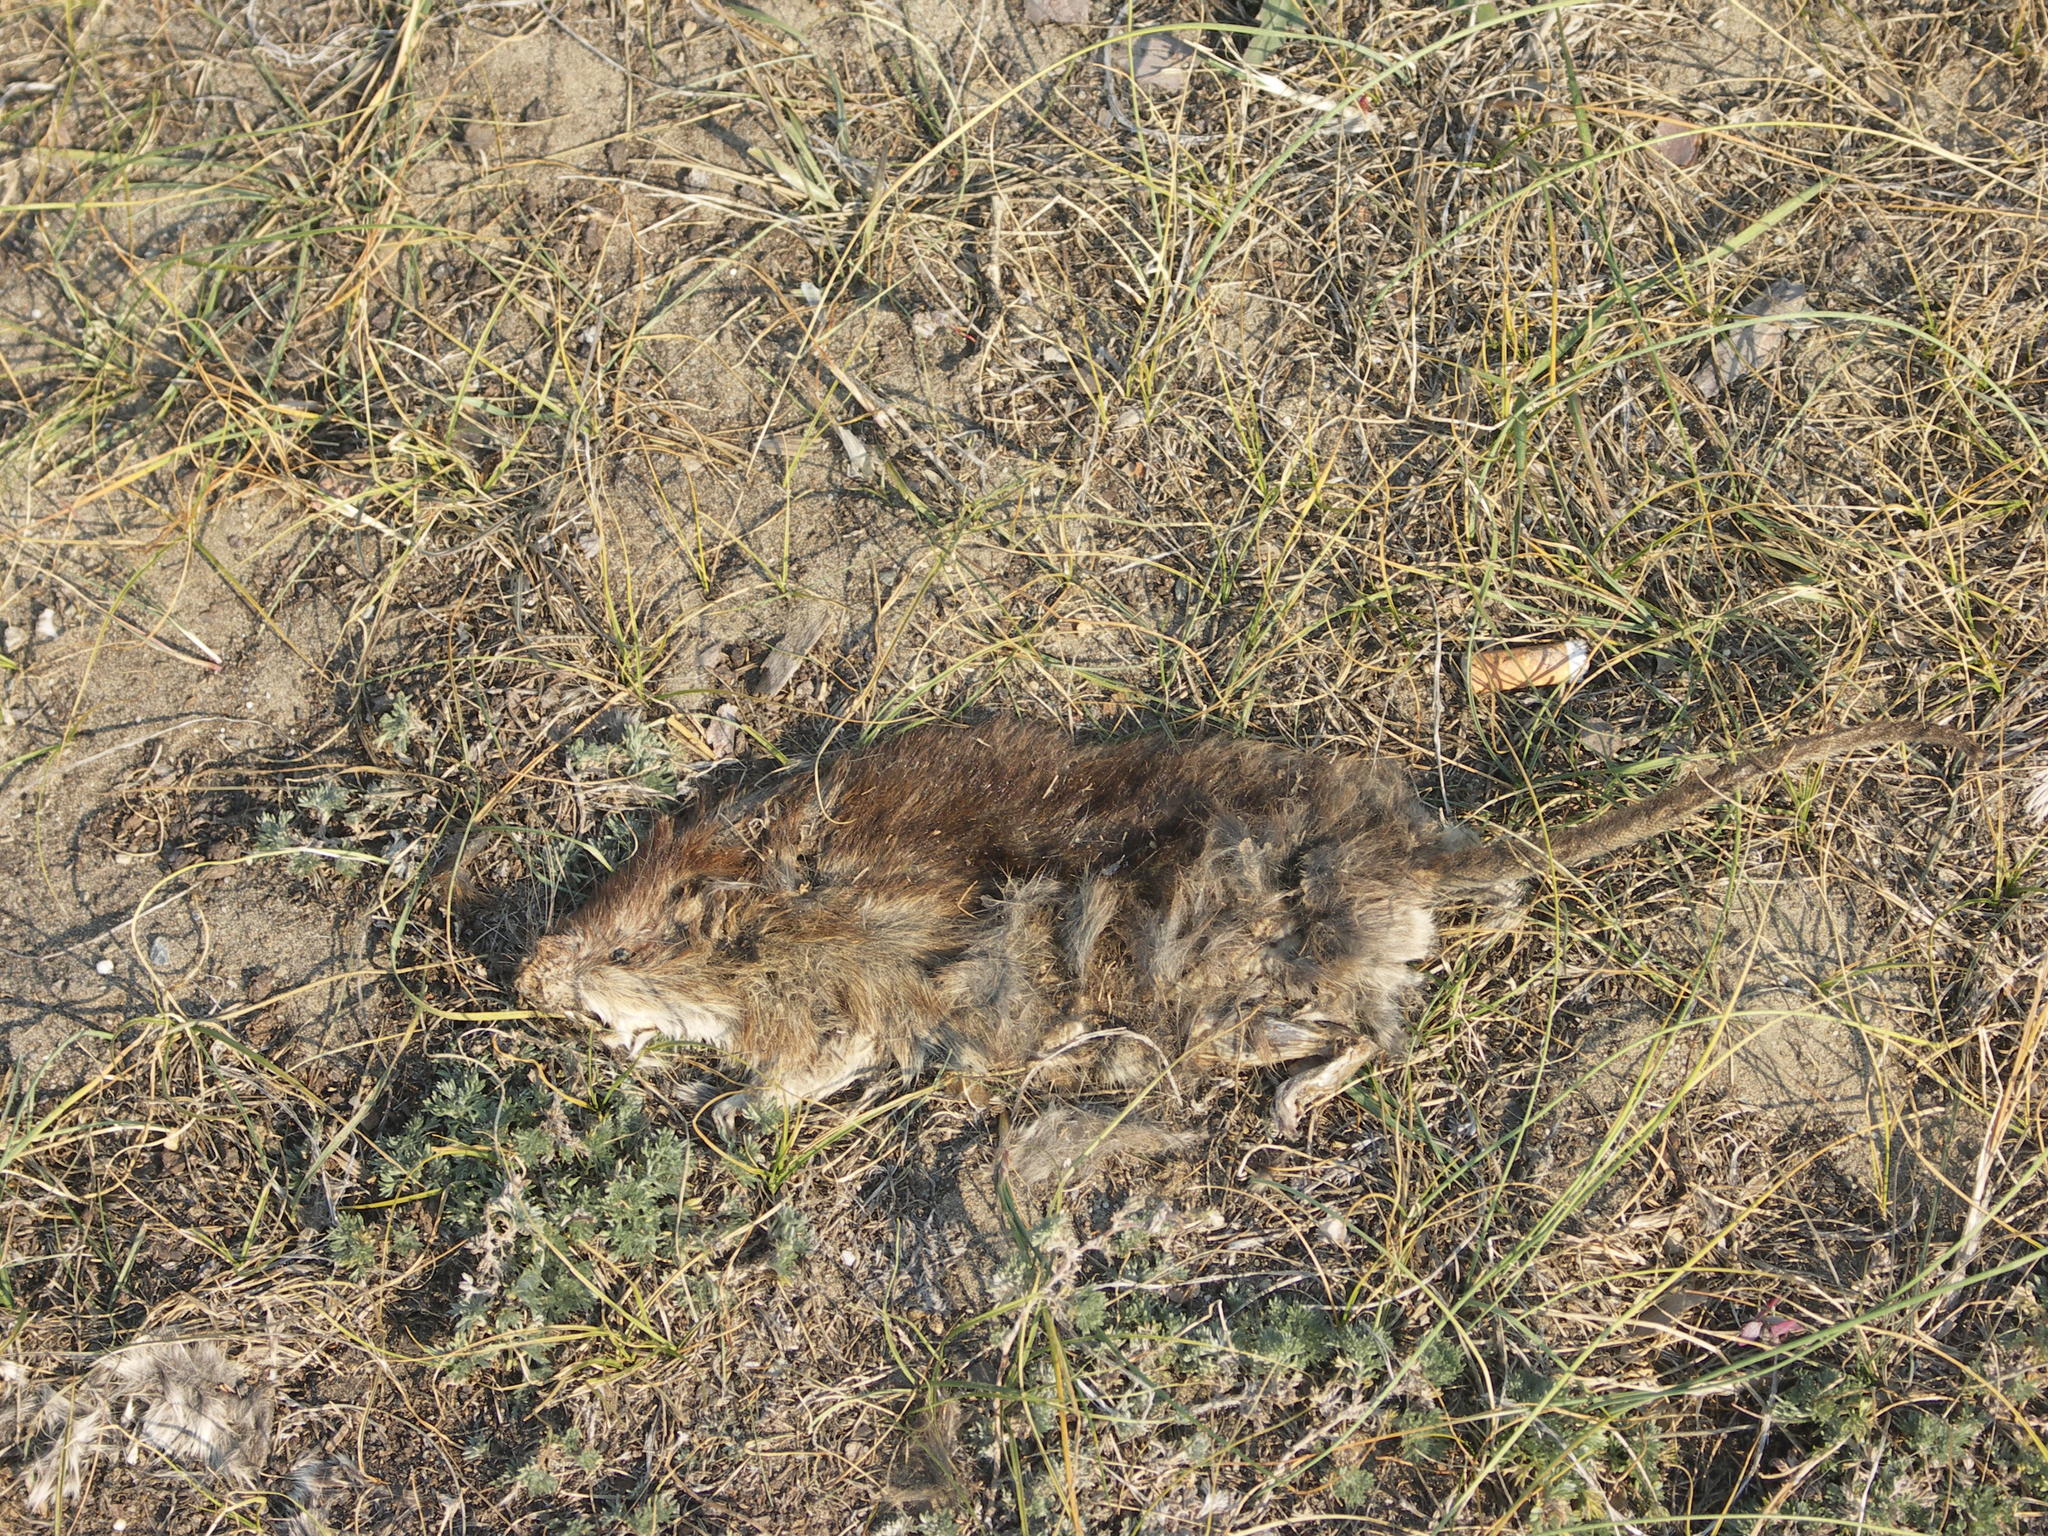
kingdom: Animalia
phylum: Chordata
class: Mammalia
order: Rodentia
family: Muridae
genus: Rattus
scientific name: Rattus norvegicus
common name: Brown rat
